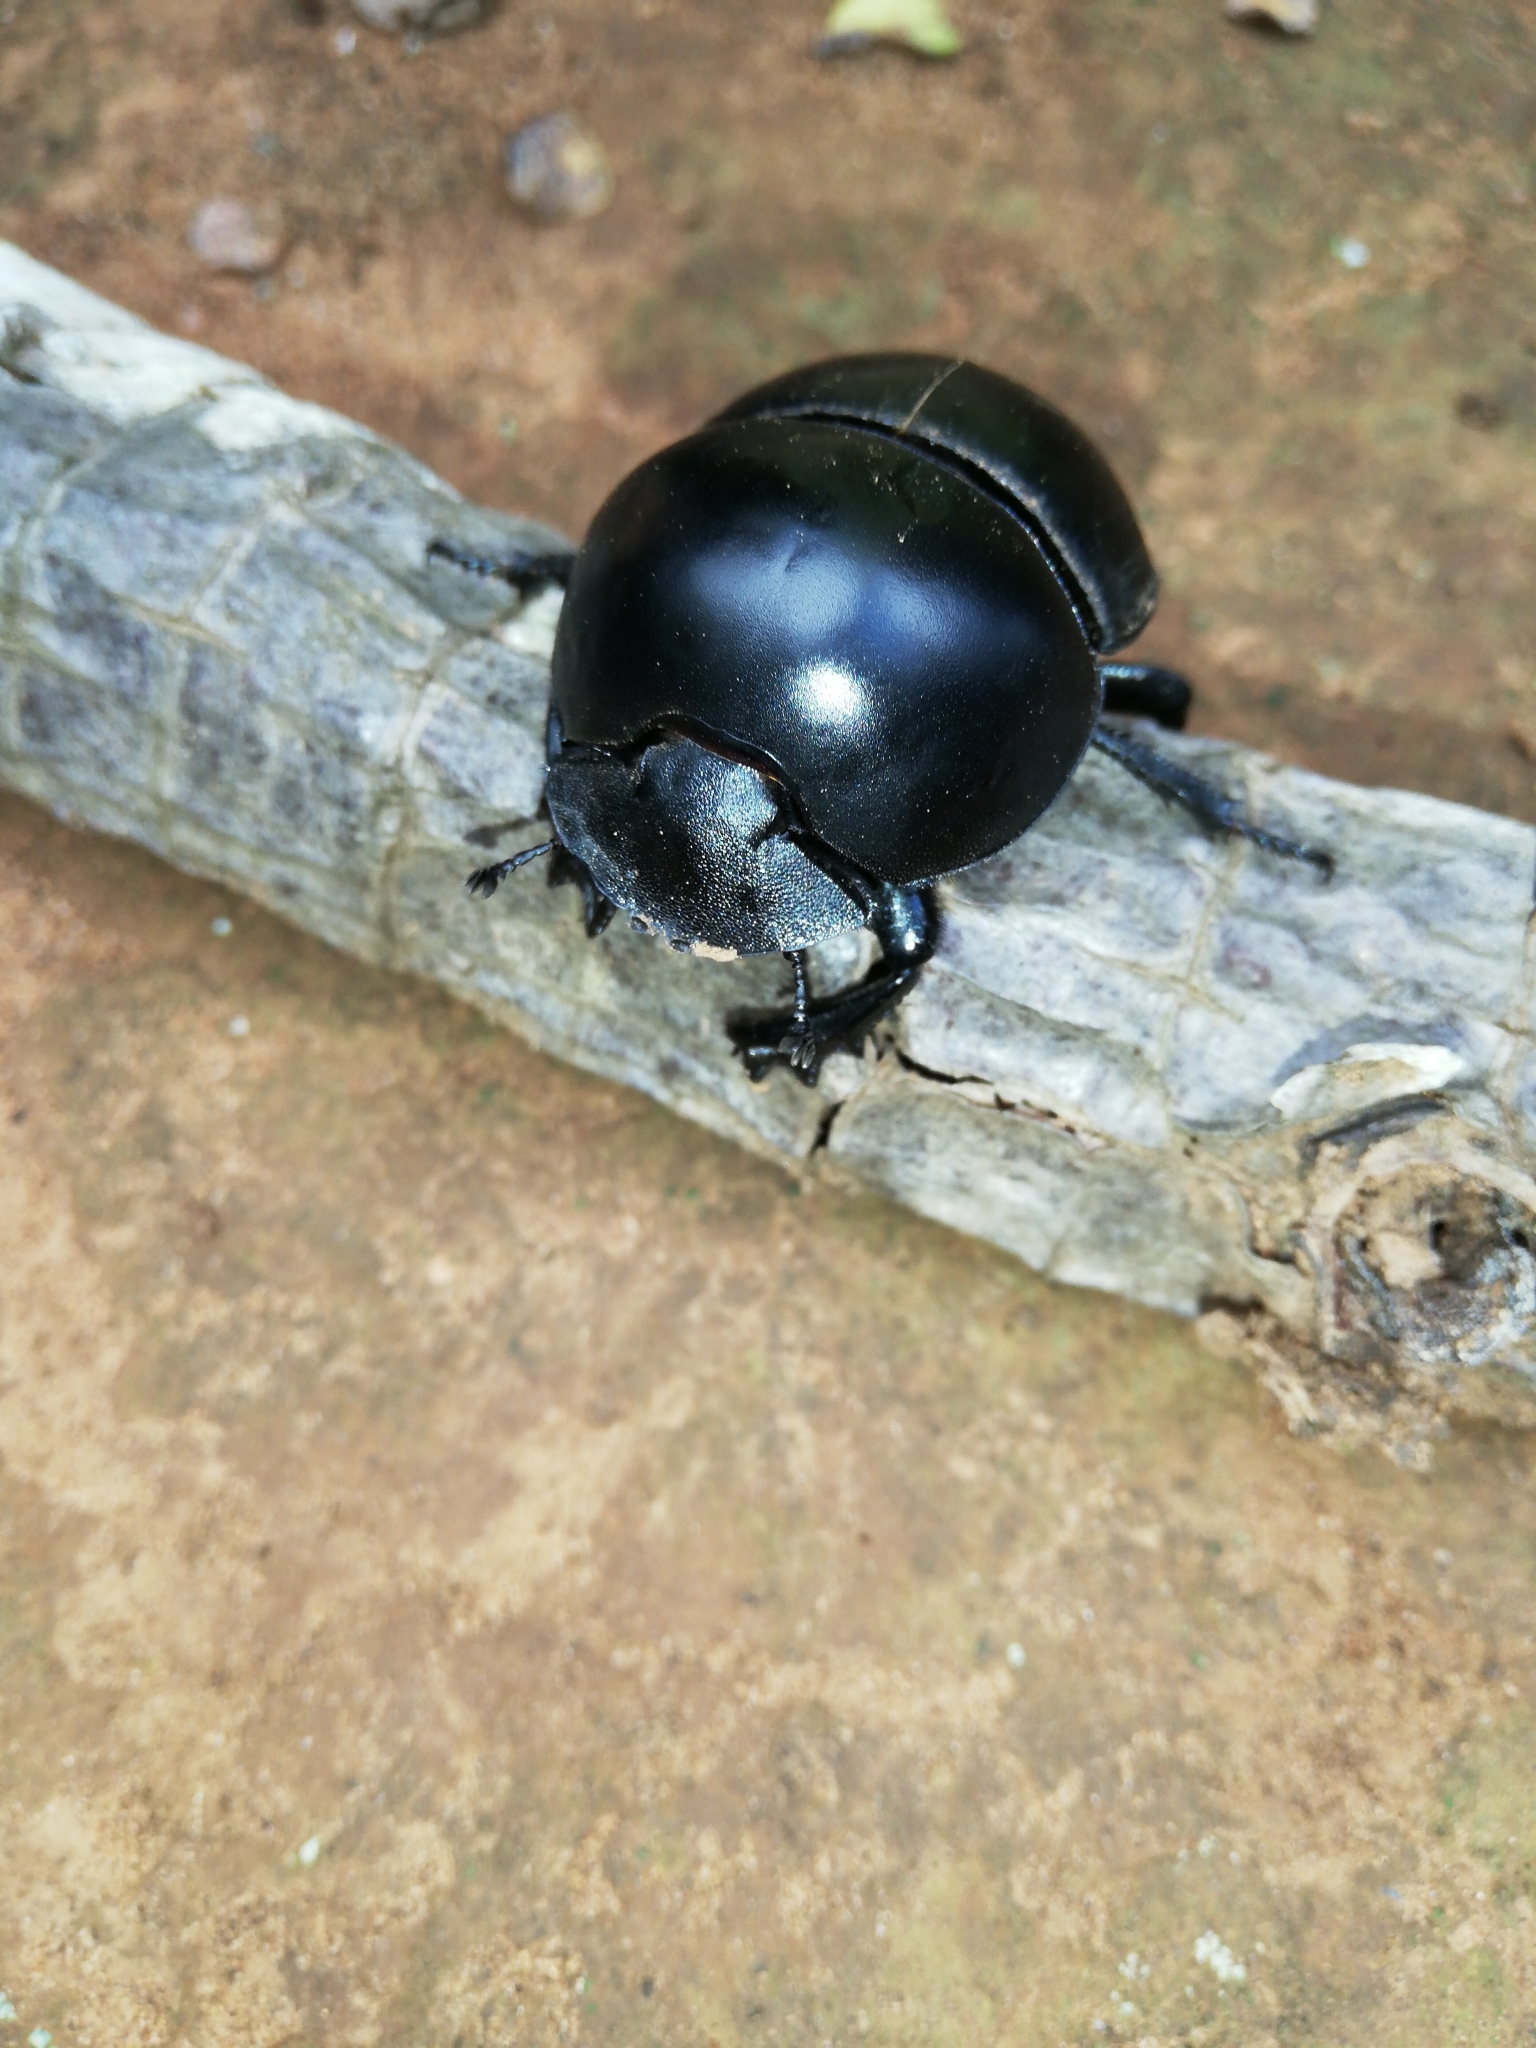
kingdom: Animalia
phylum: Arthropoda
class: Insecta
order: Coleoptera
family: Scarabaeidae
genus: Circellium
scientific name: Circellium bacchus
